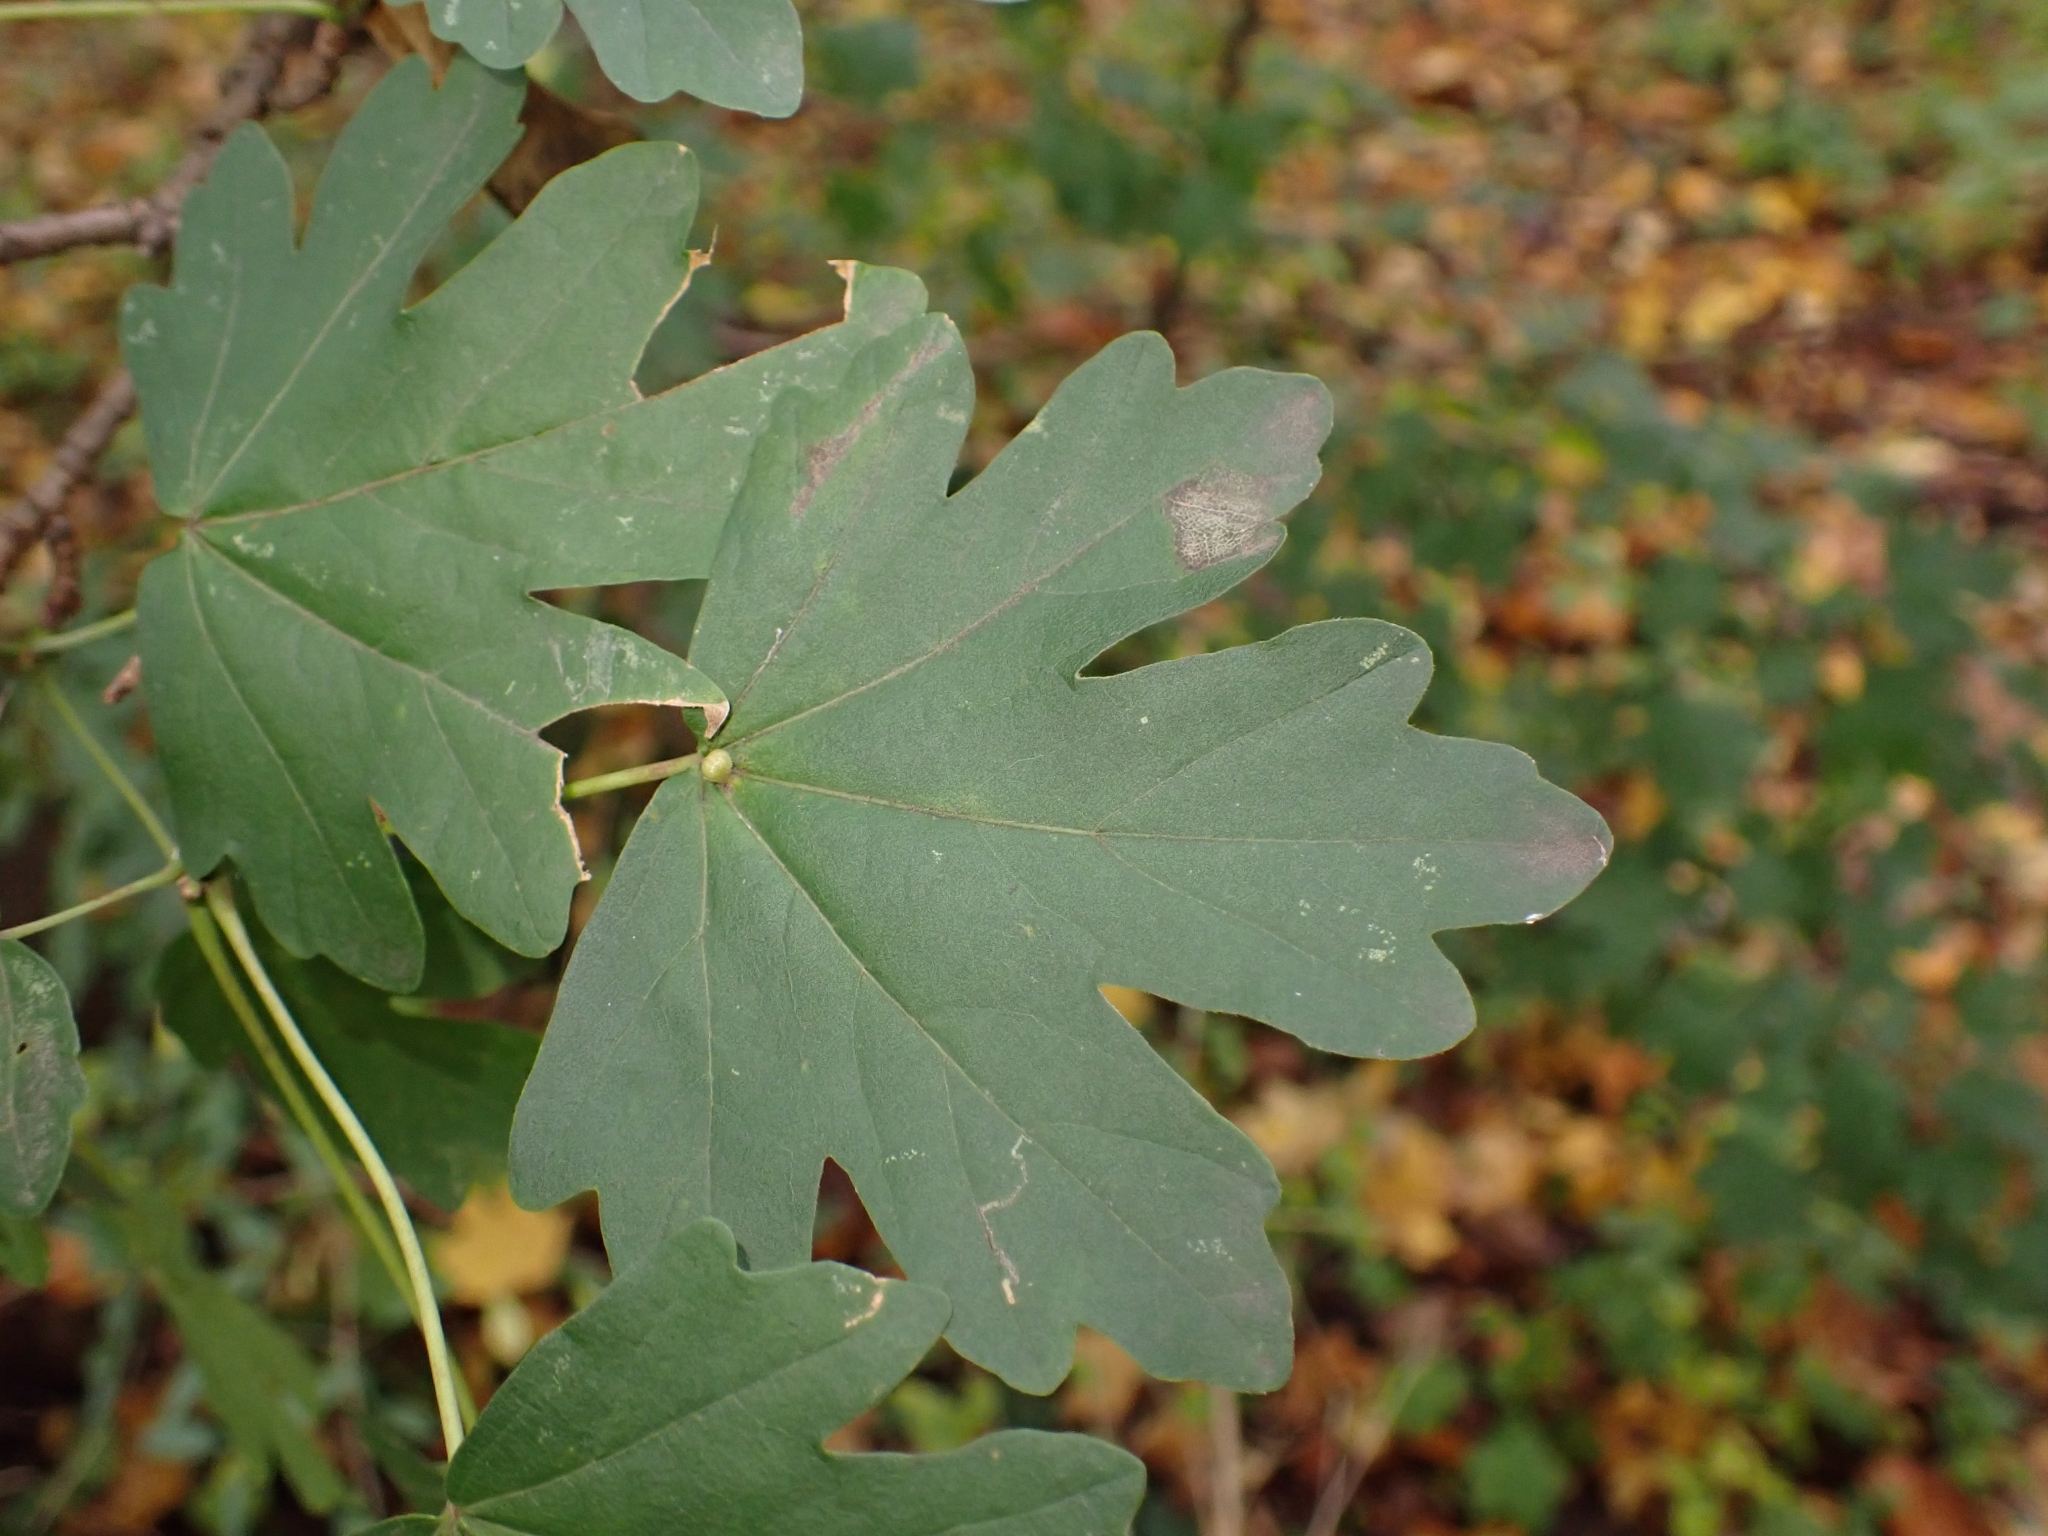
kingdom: Plantae
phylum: Tracheophyta
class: Magnoliopsida
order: Sapindales
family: Sapindaceae
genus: Acer
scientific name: Acer campestre
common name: Field maple
